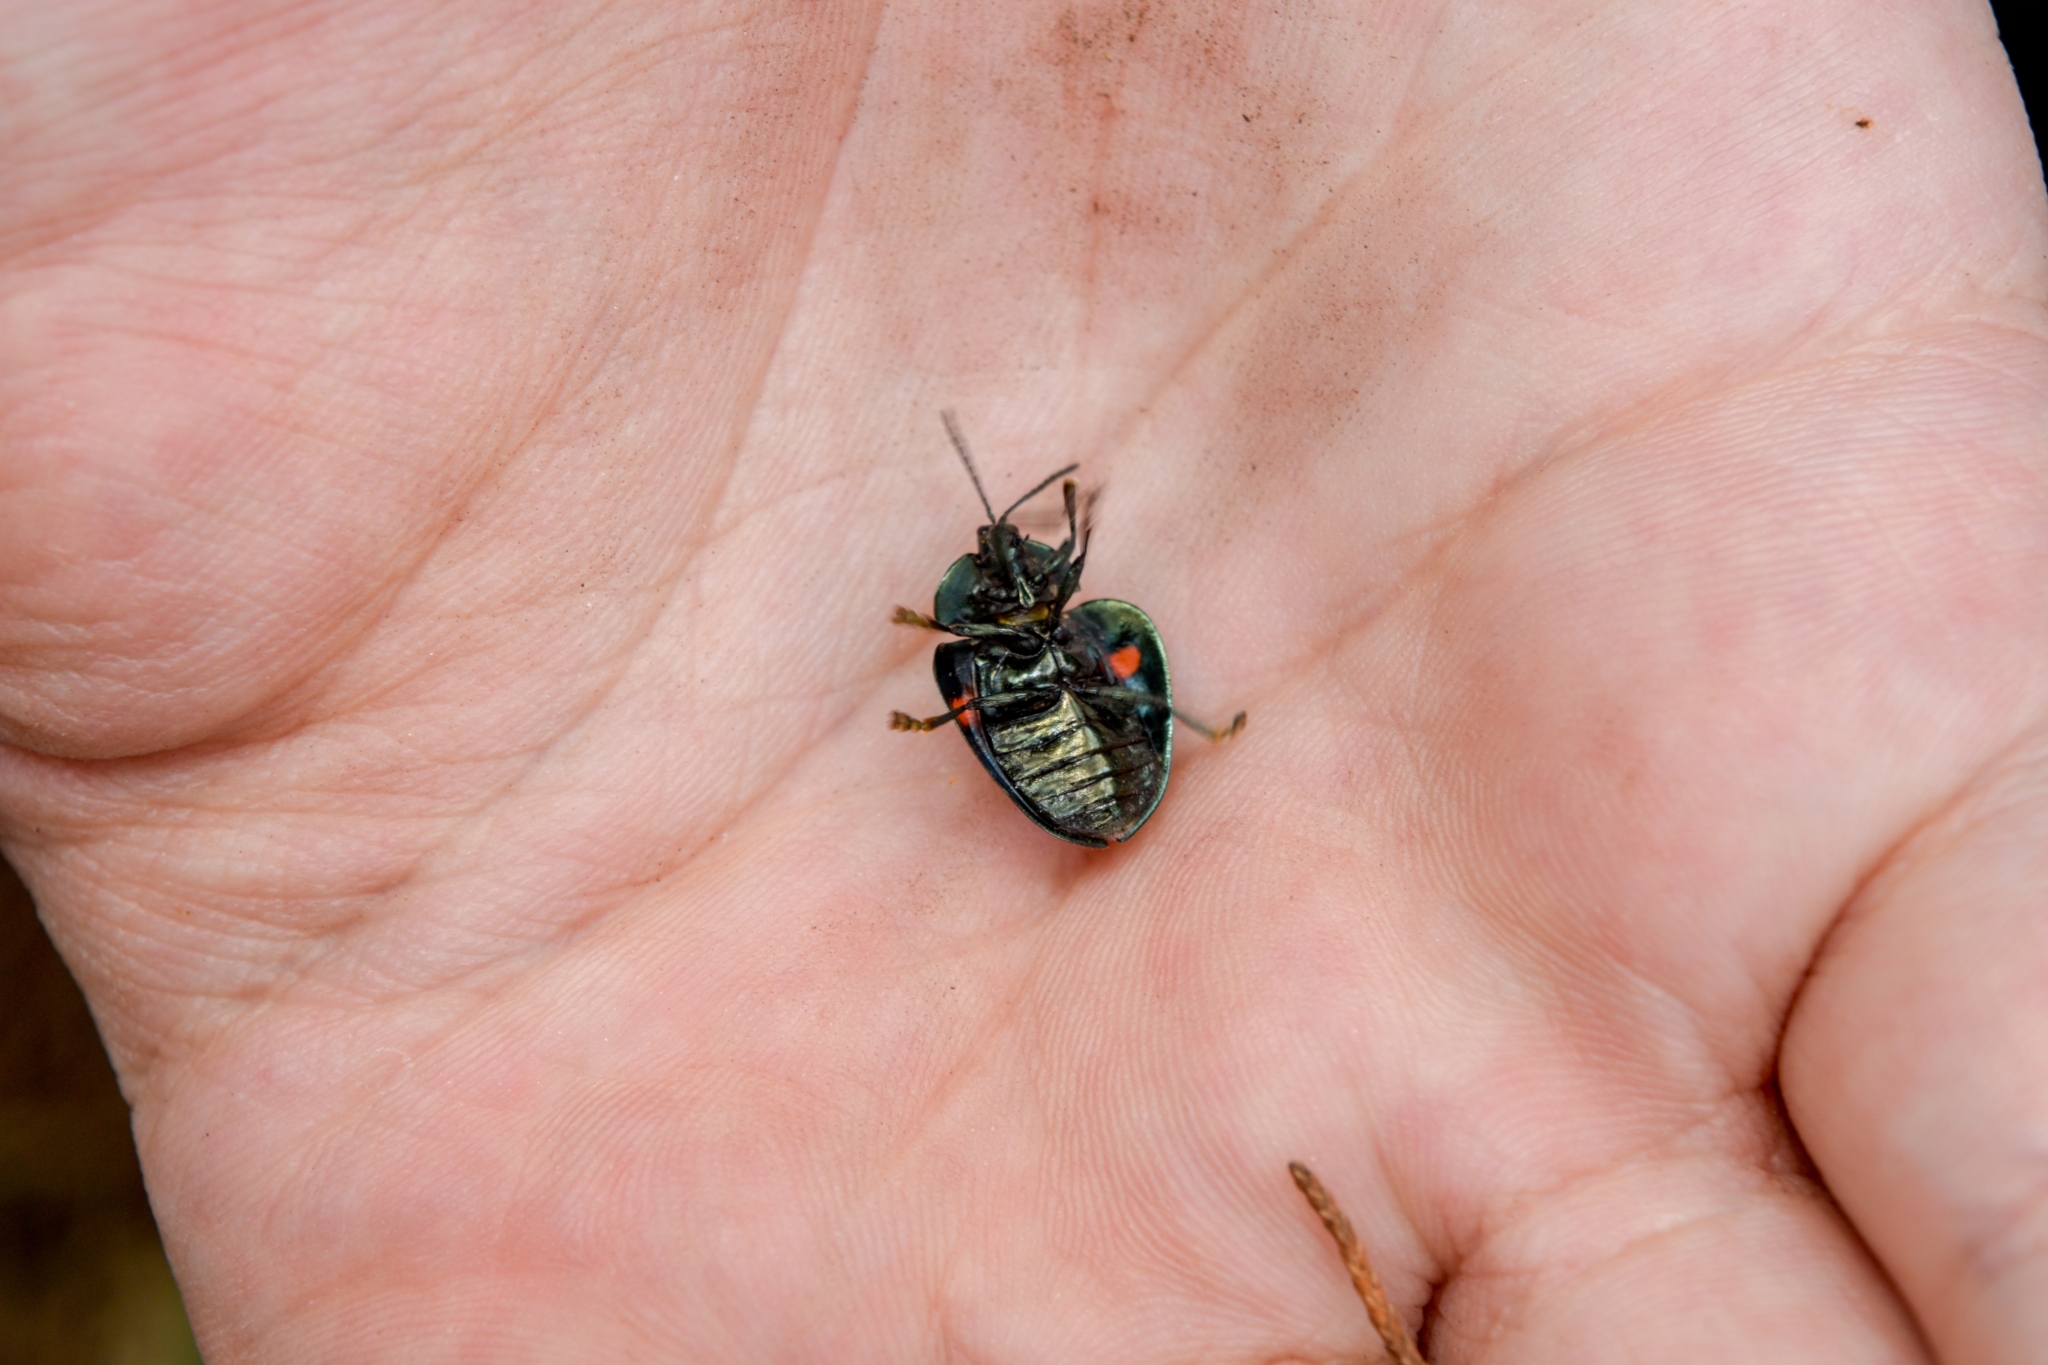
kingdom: Animalia
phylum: Arthropoda
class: Insecta
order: Coleoptera
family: Chrysomelidae
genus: Stolas
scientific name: Stolas
